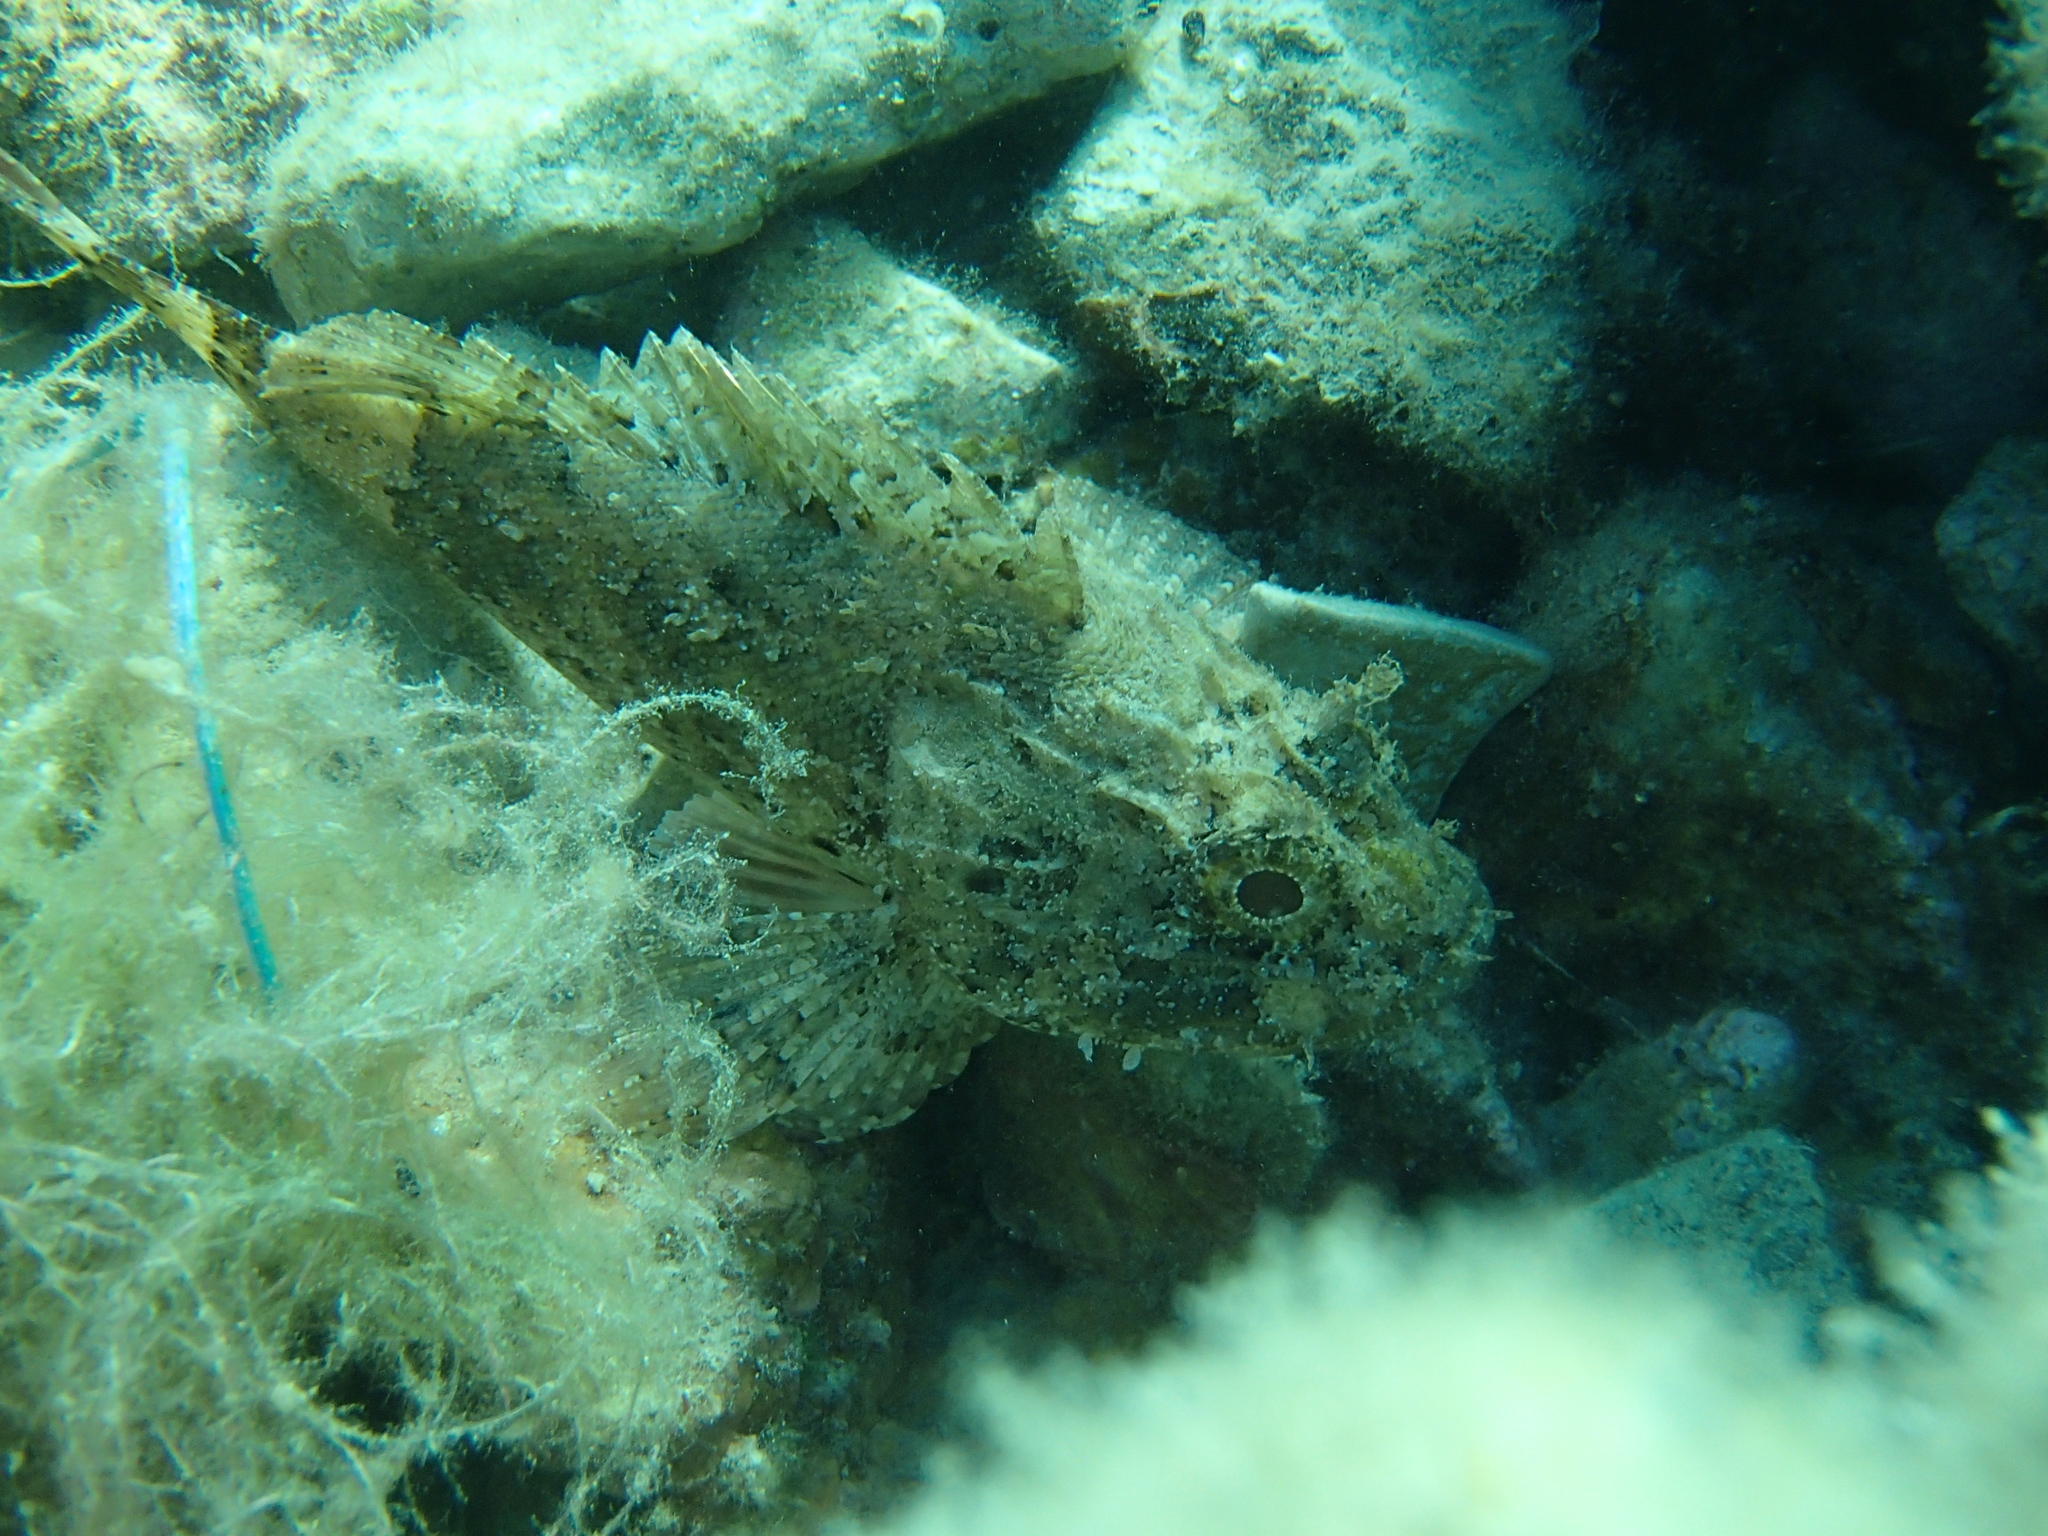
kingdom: Animalia
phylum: Chordata
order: Scorpaeniformes
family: Scorpaenidae
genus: Scorpaena
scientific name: Scorpaena porcus
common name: Black scorpionfish
